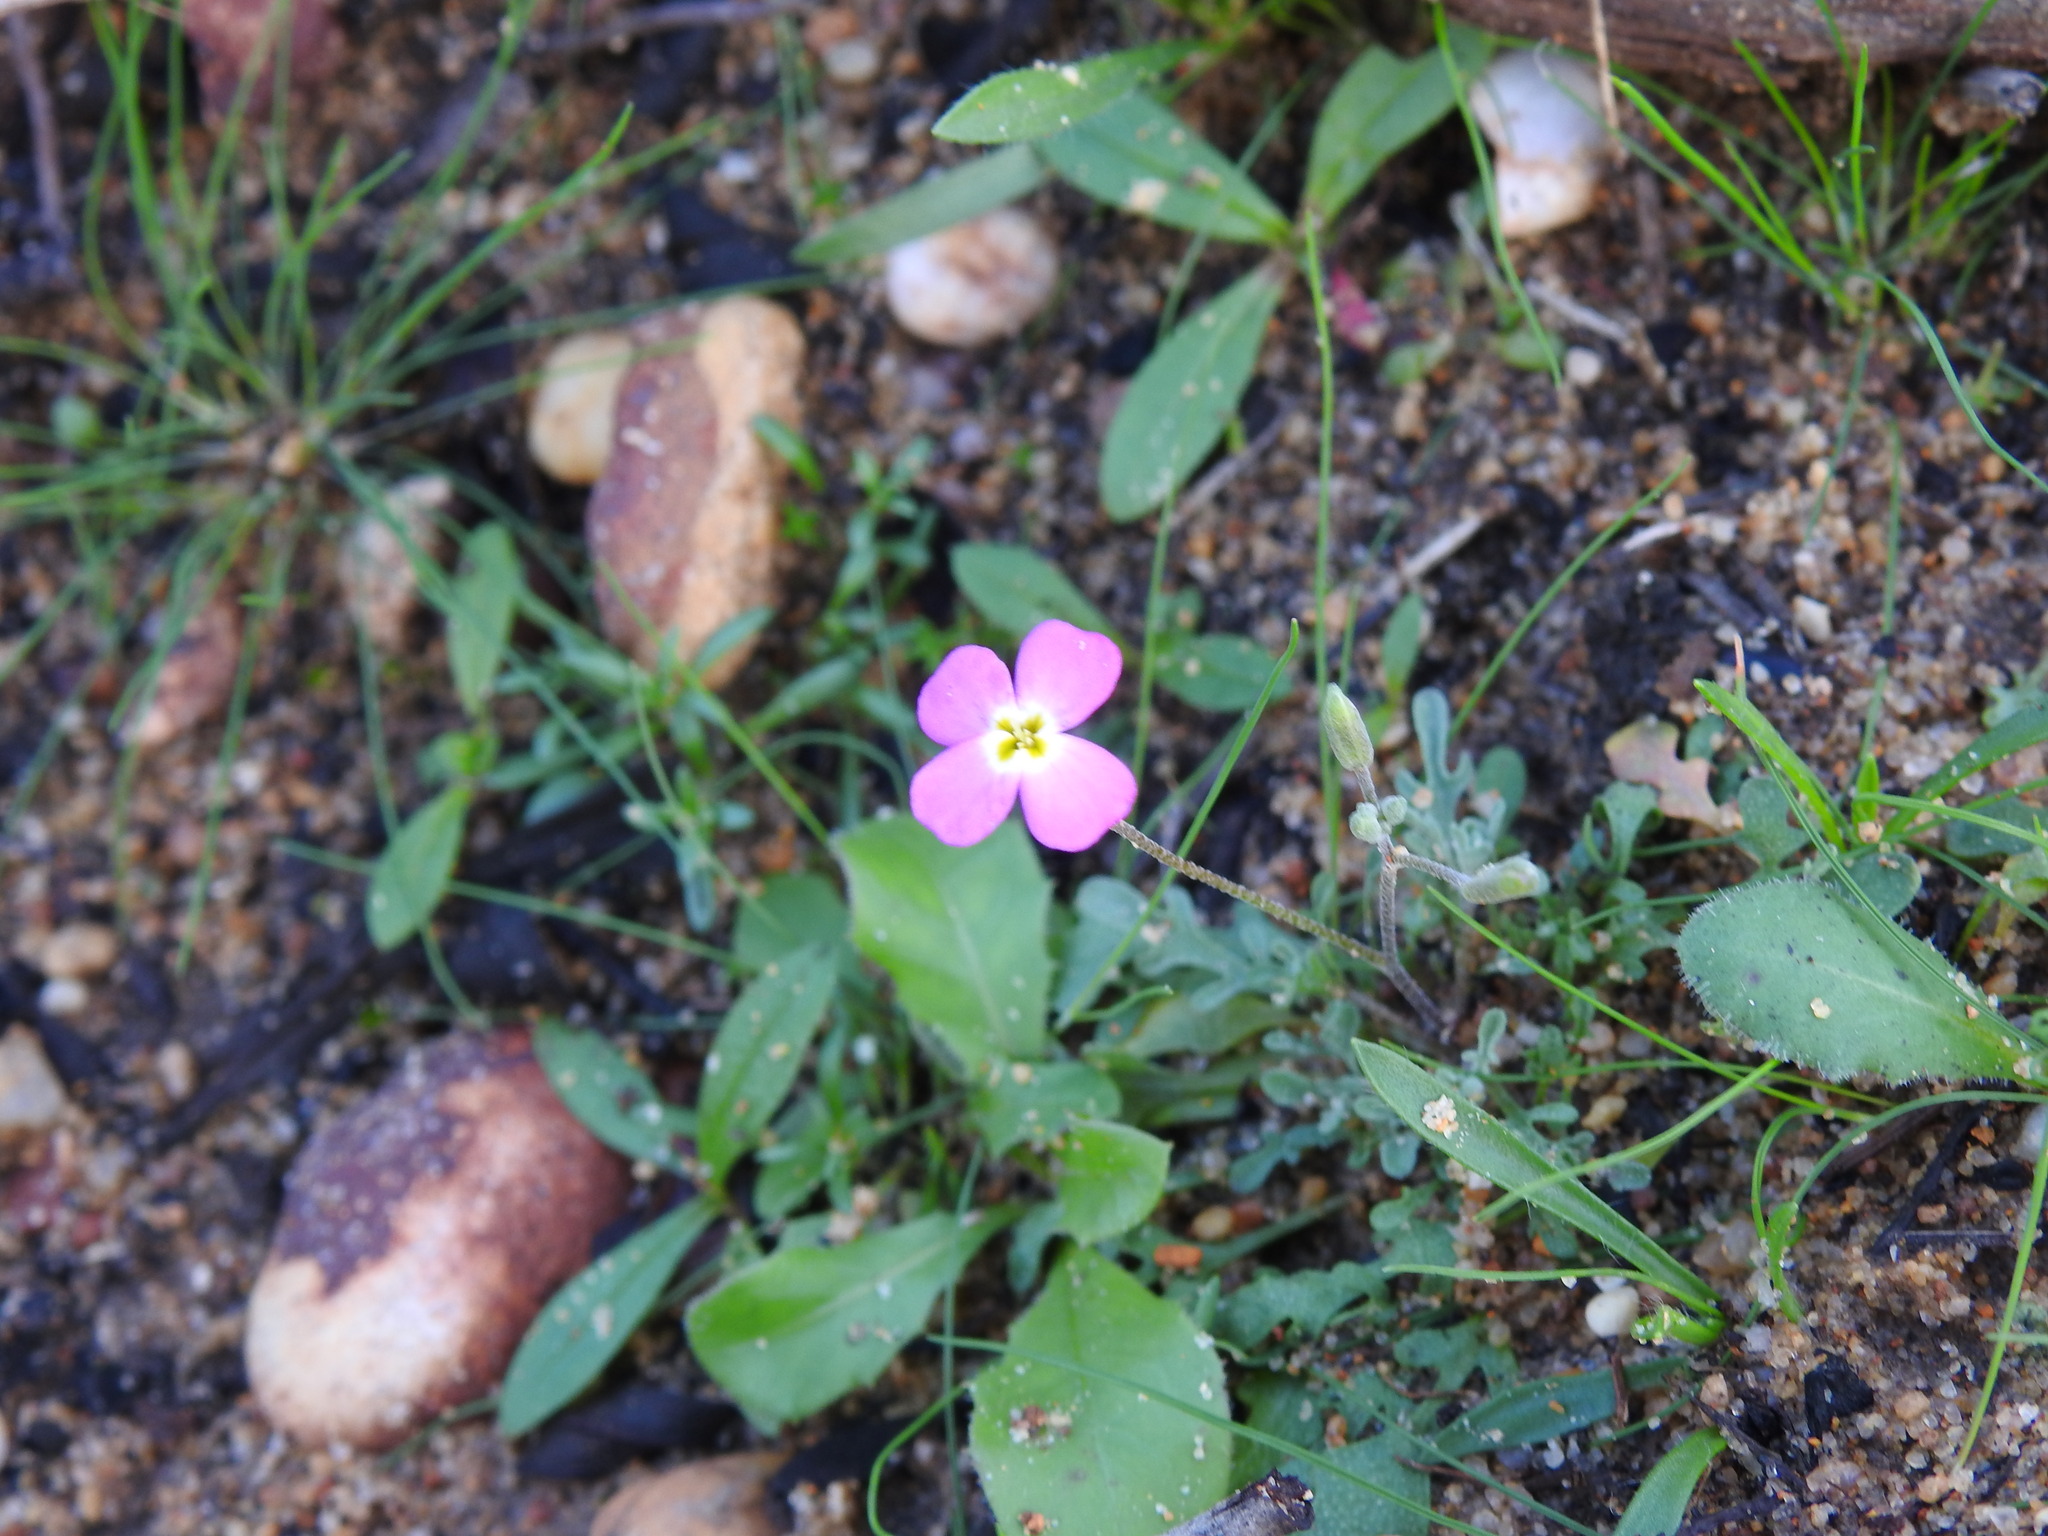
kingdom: Plantae
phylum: Tracheophyta
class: Magnoliopsida
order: Brassicales
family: Brassicaceae
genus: Marcuskochia
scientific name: Marcuskochia triloba
